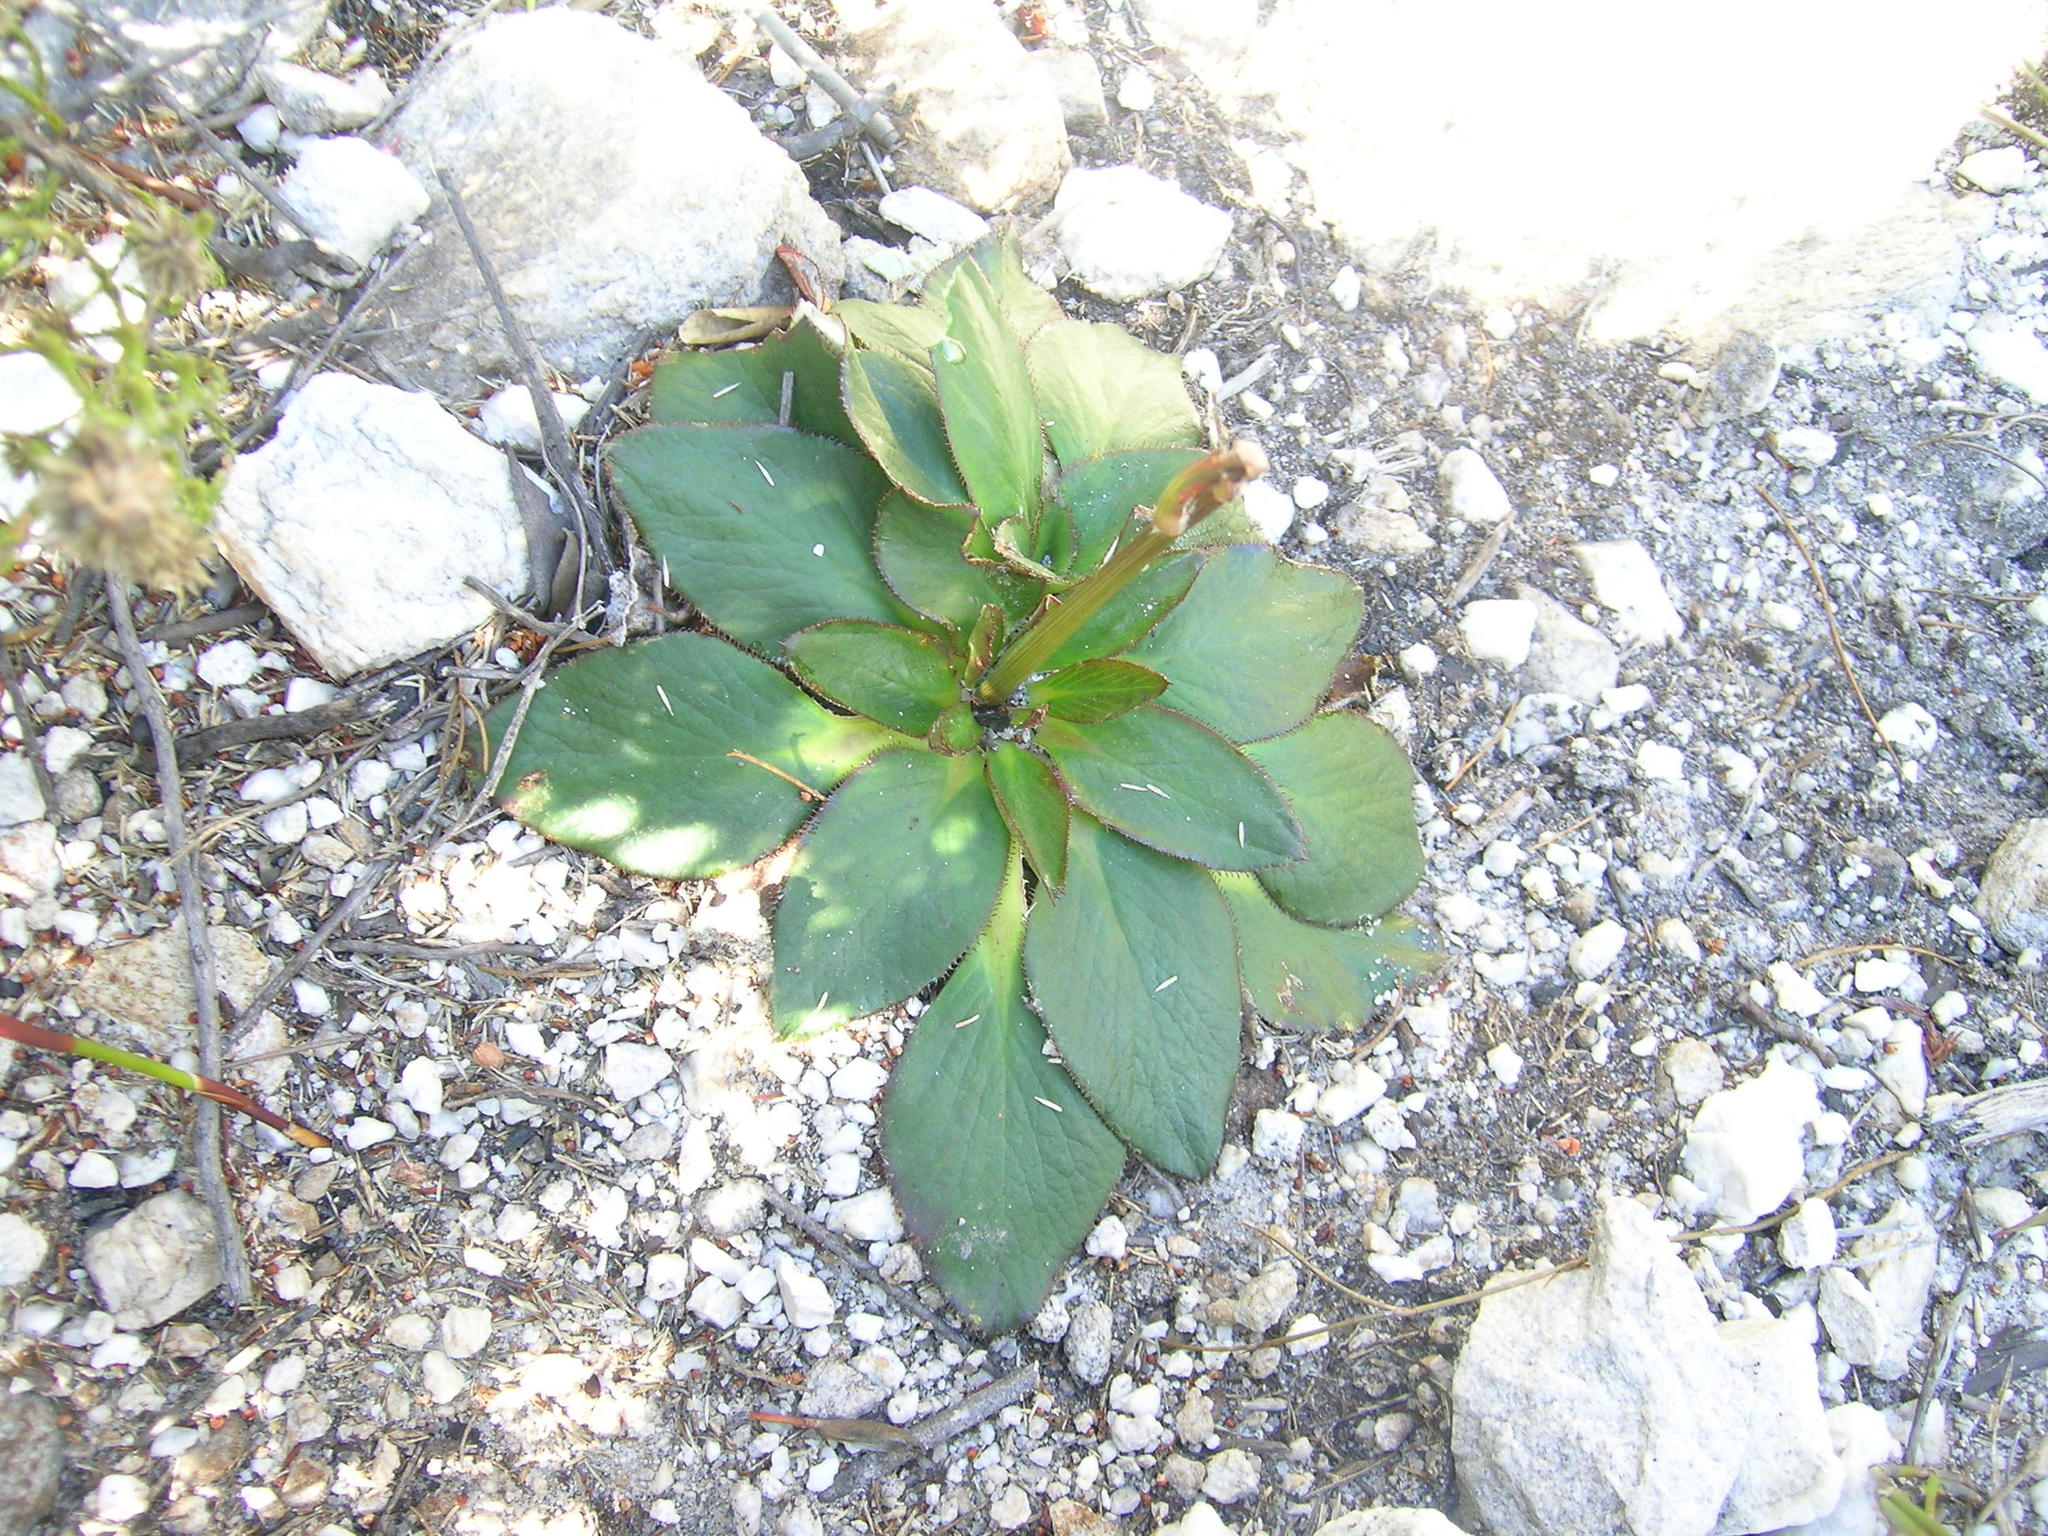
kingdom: Plantae
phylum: Tracheophyta
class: Magnoliopsida
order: Apiales
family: Apiaceae
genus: Hermas
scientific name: Hermas ciliata
